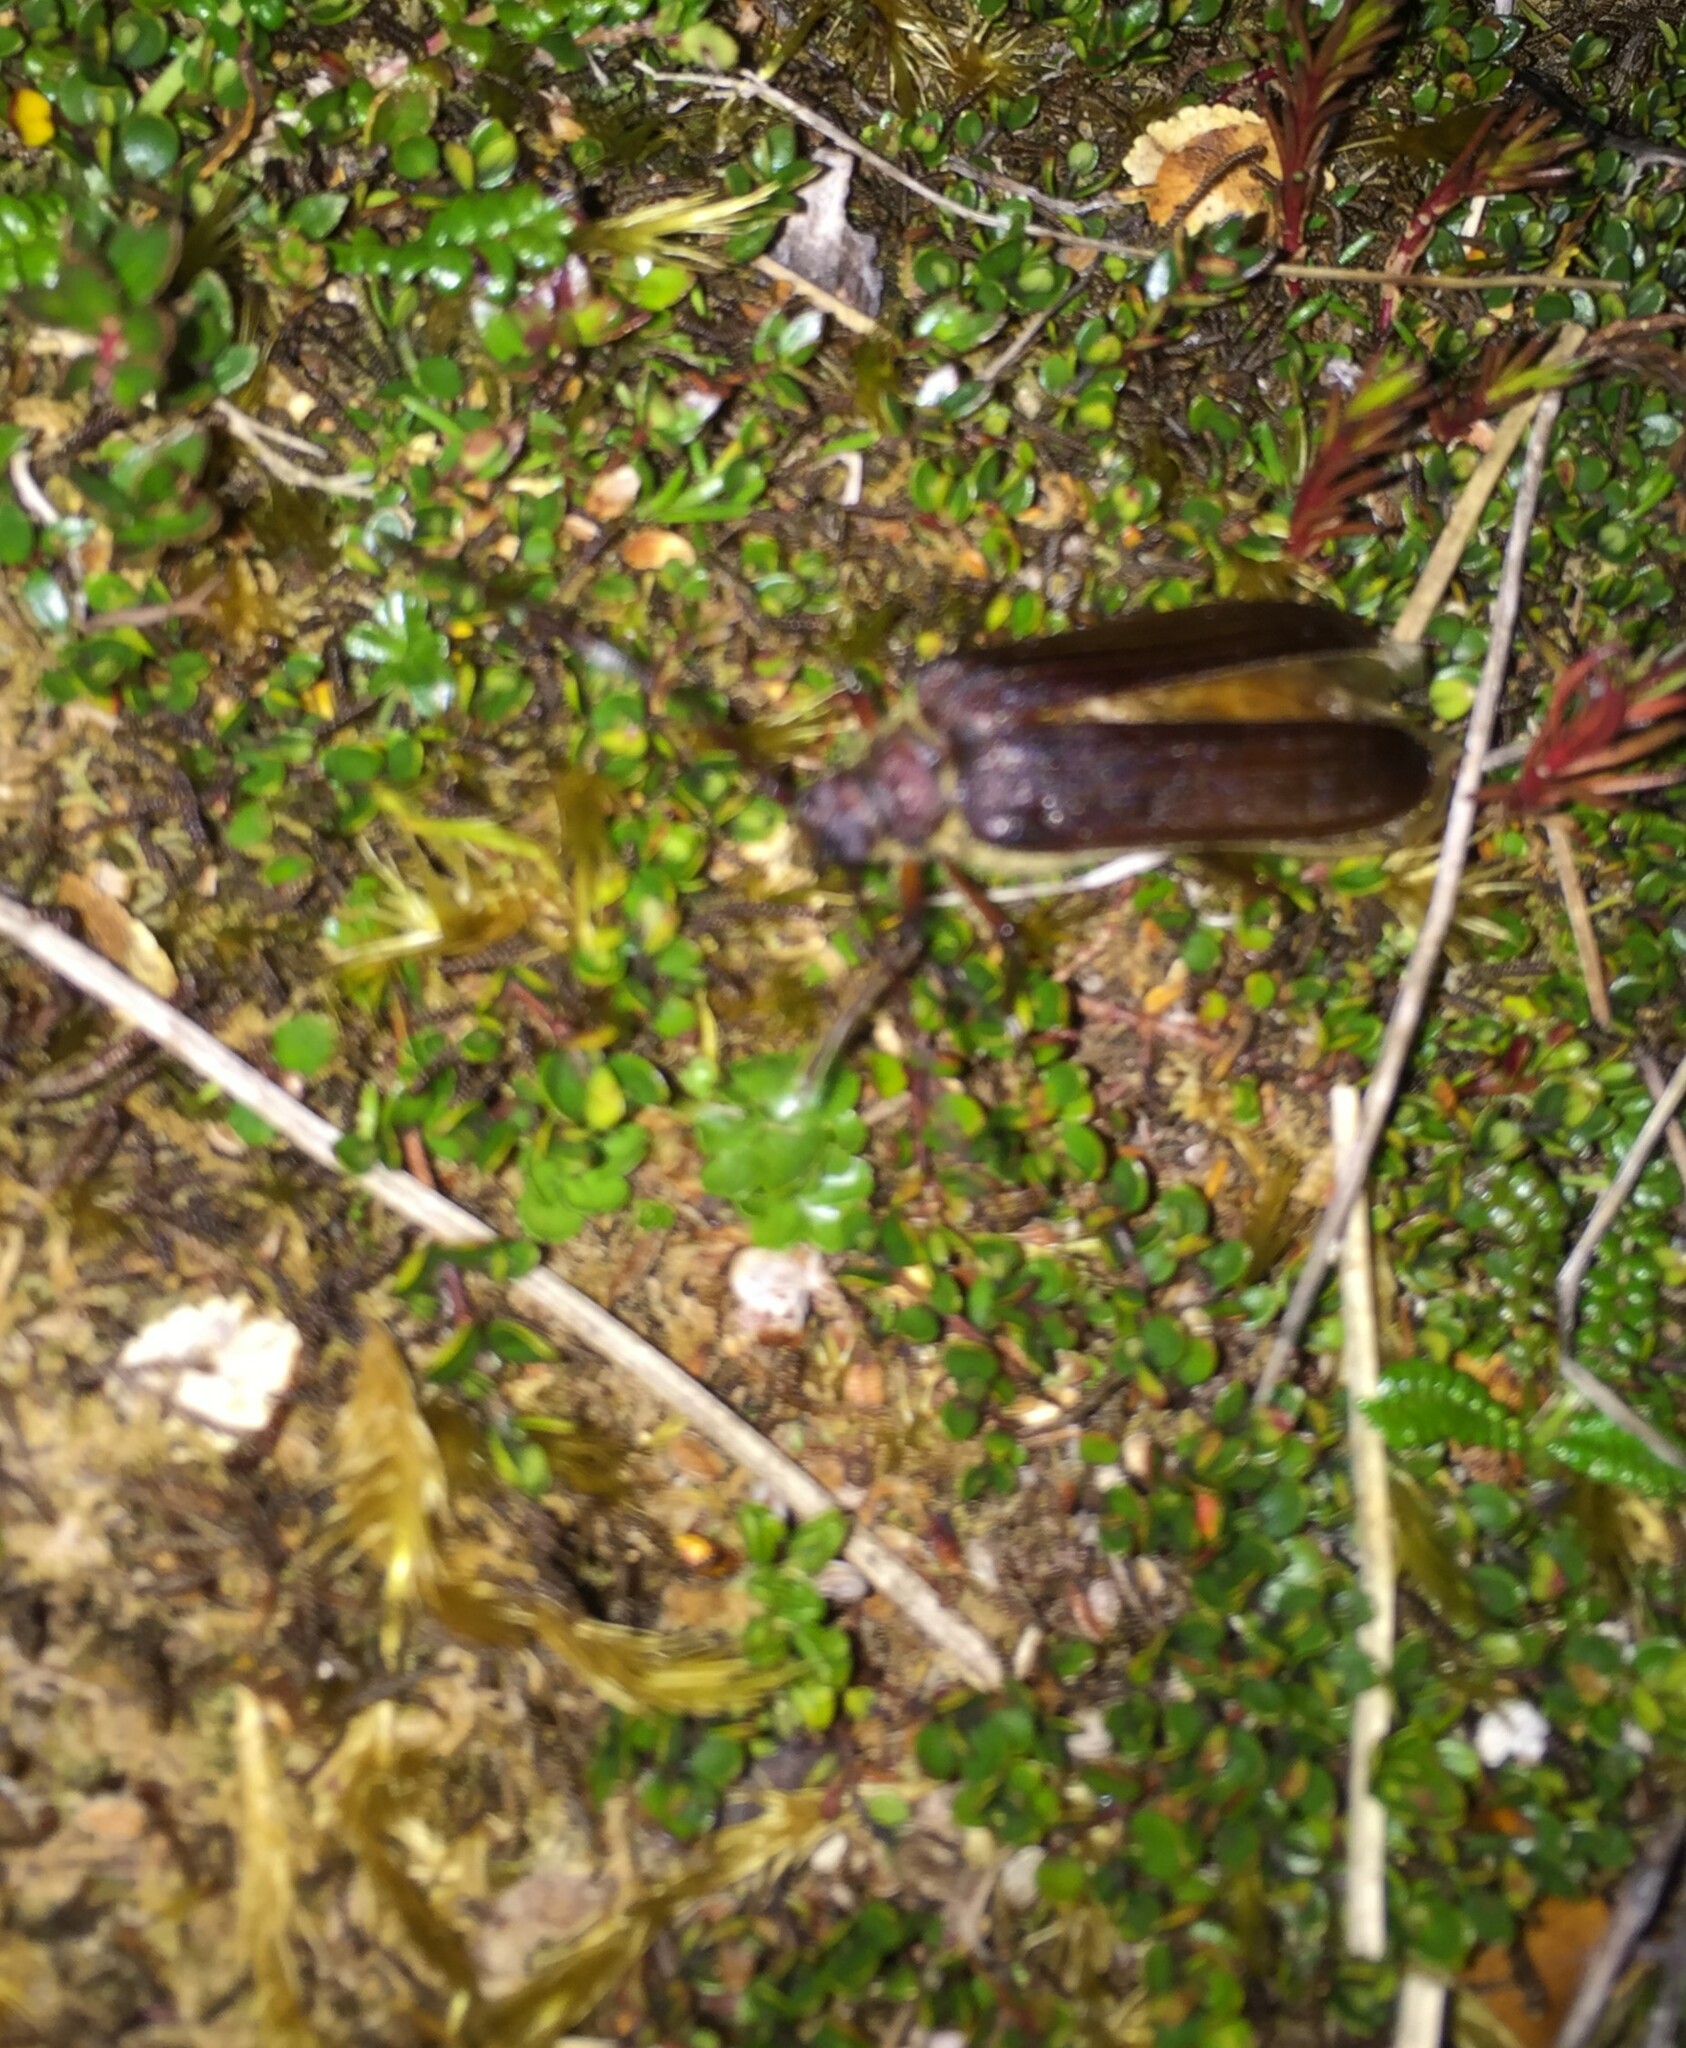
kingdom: Animalia
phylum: Arthropoda
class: Insecta
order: Coleoptera
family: Cerambycidae
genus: Microplophorus
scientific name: Microplophorus magellanicus
